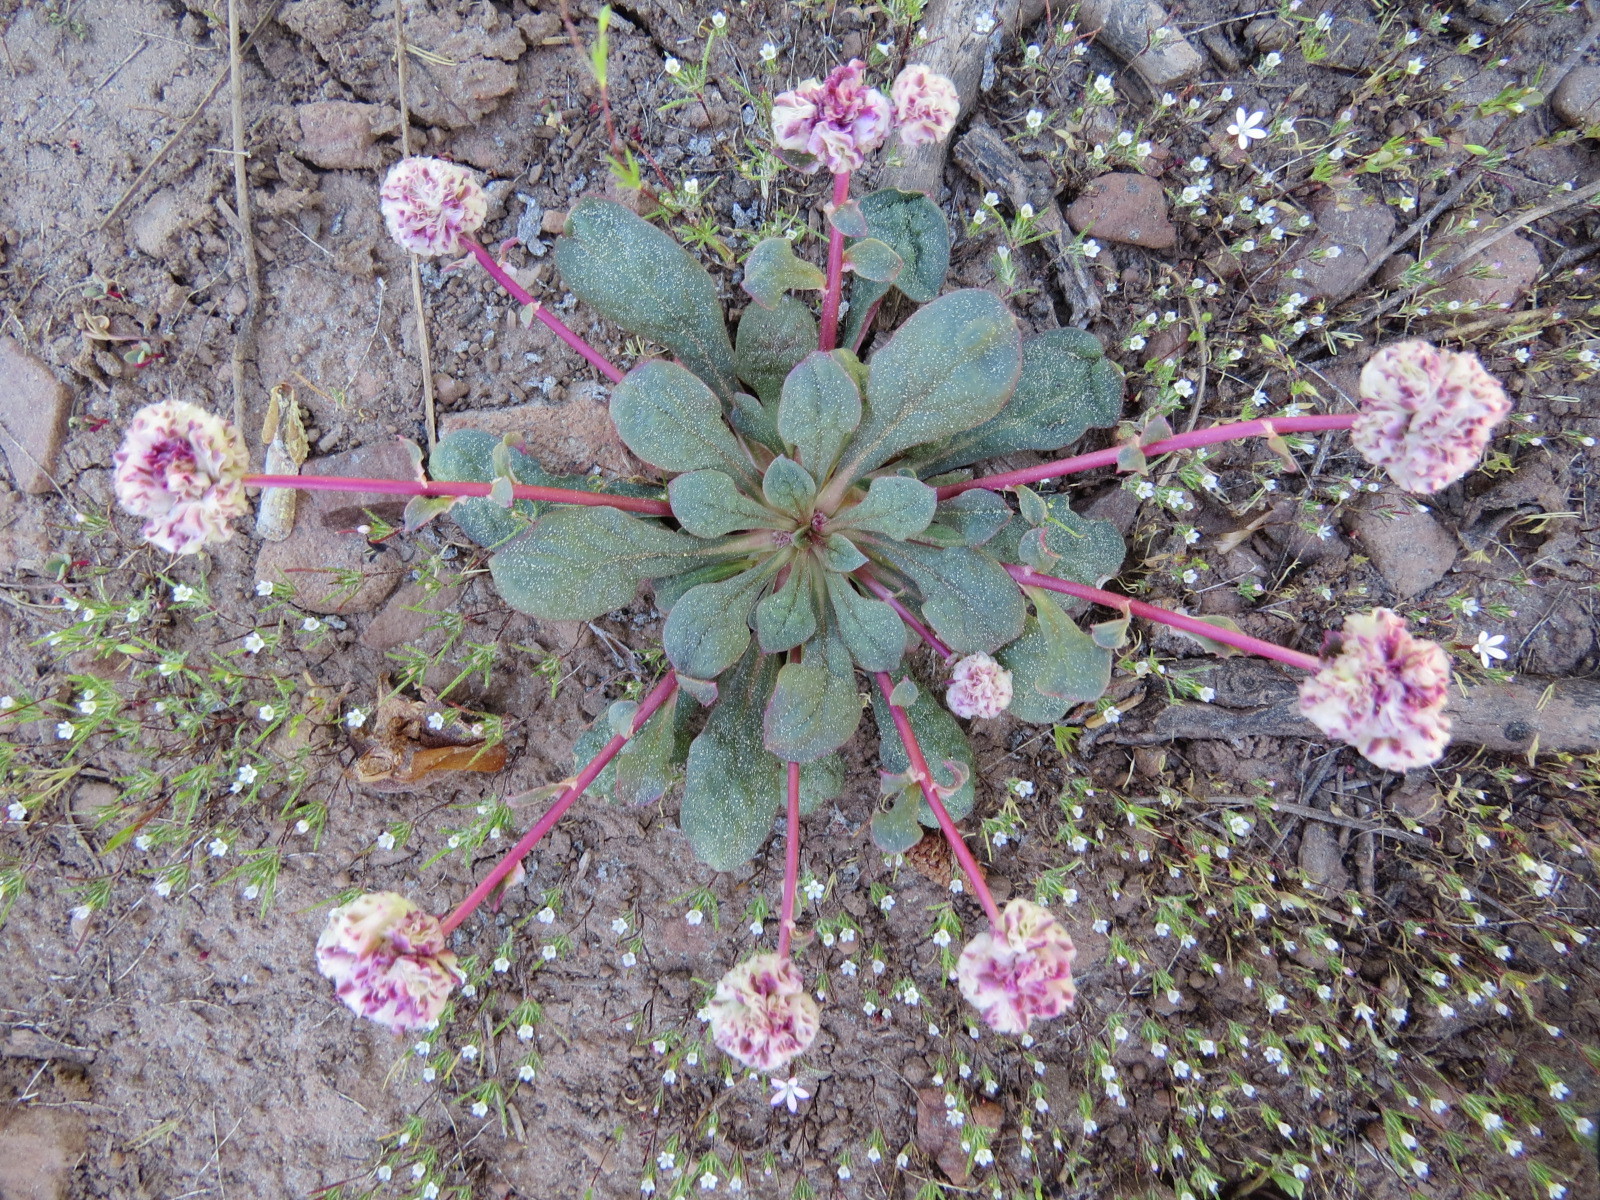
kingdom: Plantae
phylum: Tracheophyta
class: Magnoliopsida
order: Caryophyllales
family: Montiaceae
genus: Calyptridium
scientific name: Calyptridium monospermum
